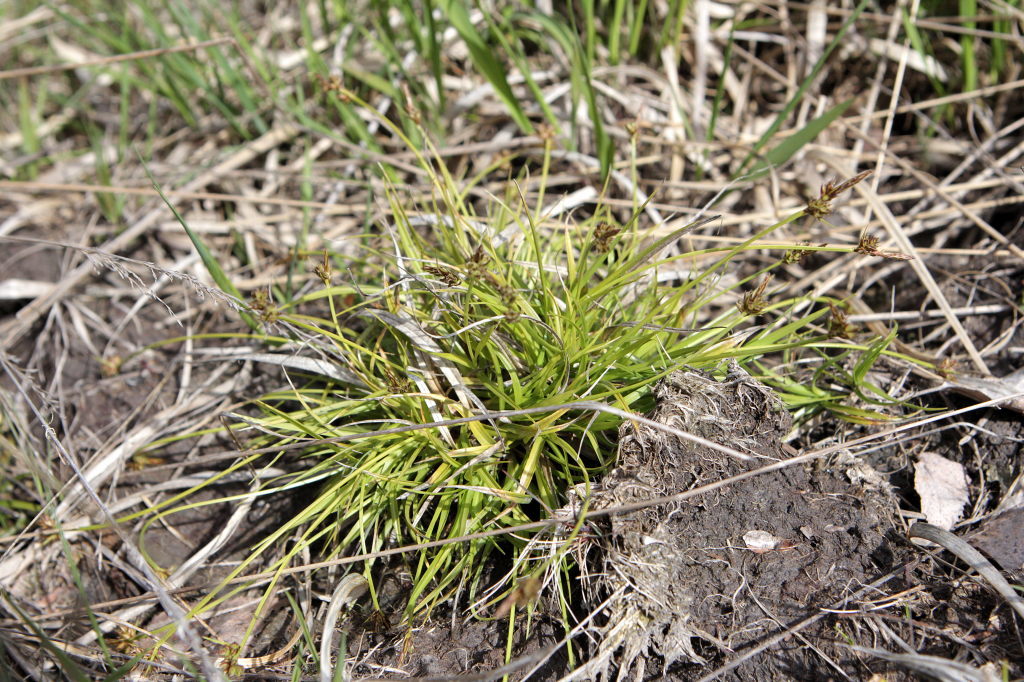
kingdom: Plantae
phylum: Tracheophyta
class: Liliopsida
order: Poales
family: Cyperaceae
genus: Carex
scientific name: Carex pilulifera
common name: Pill sedge
